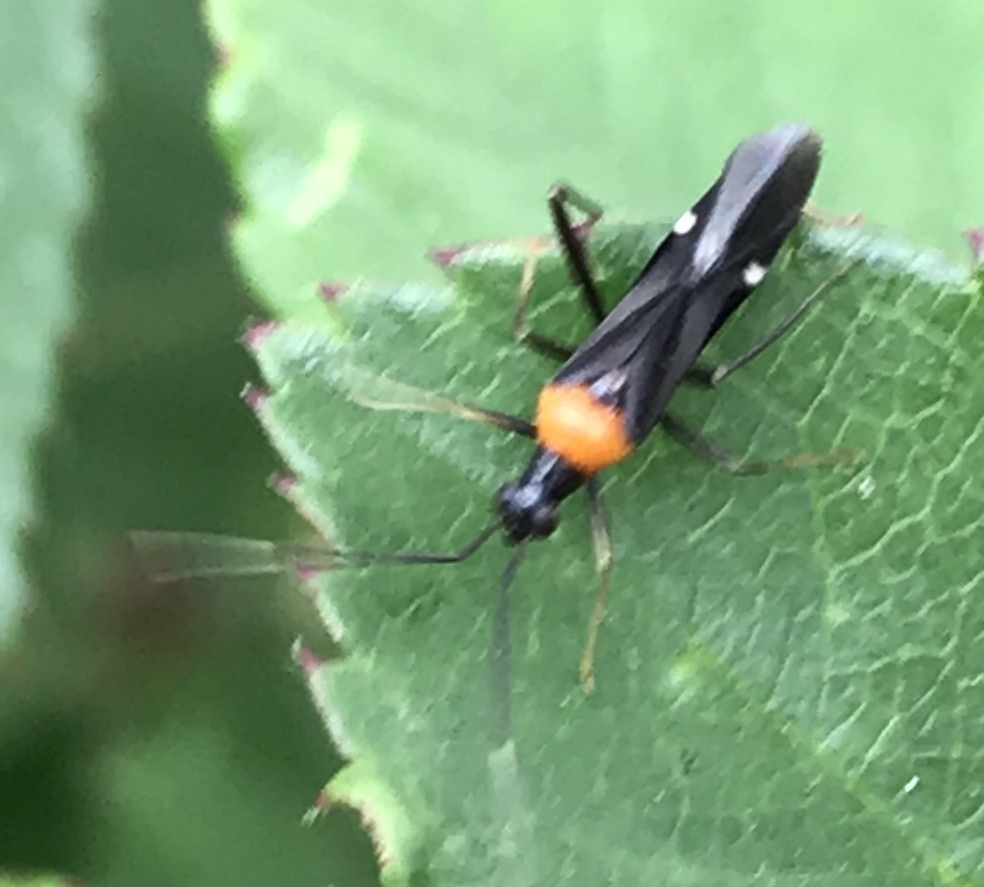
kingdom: Animalia
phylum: Arthropoda
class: Insecta
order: Hemiptera
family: Miridae
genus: Pseudoxenetus
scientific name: Pseudoxenetus regalis
